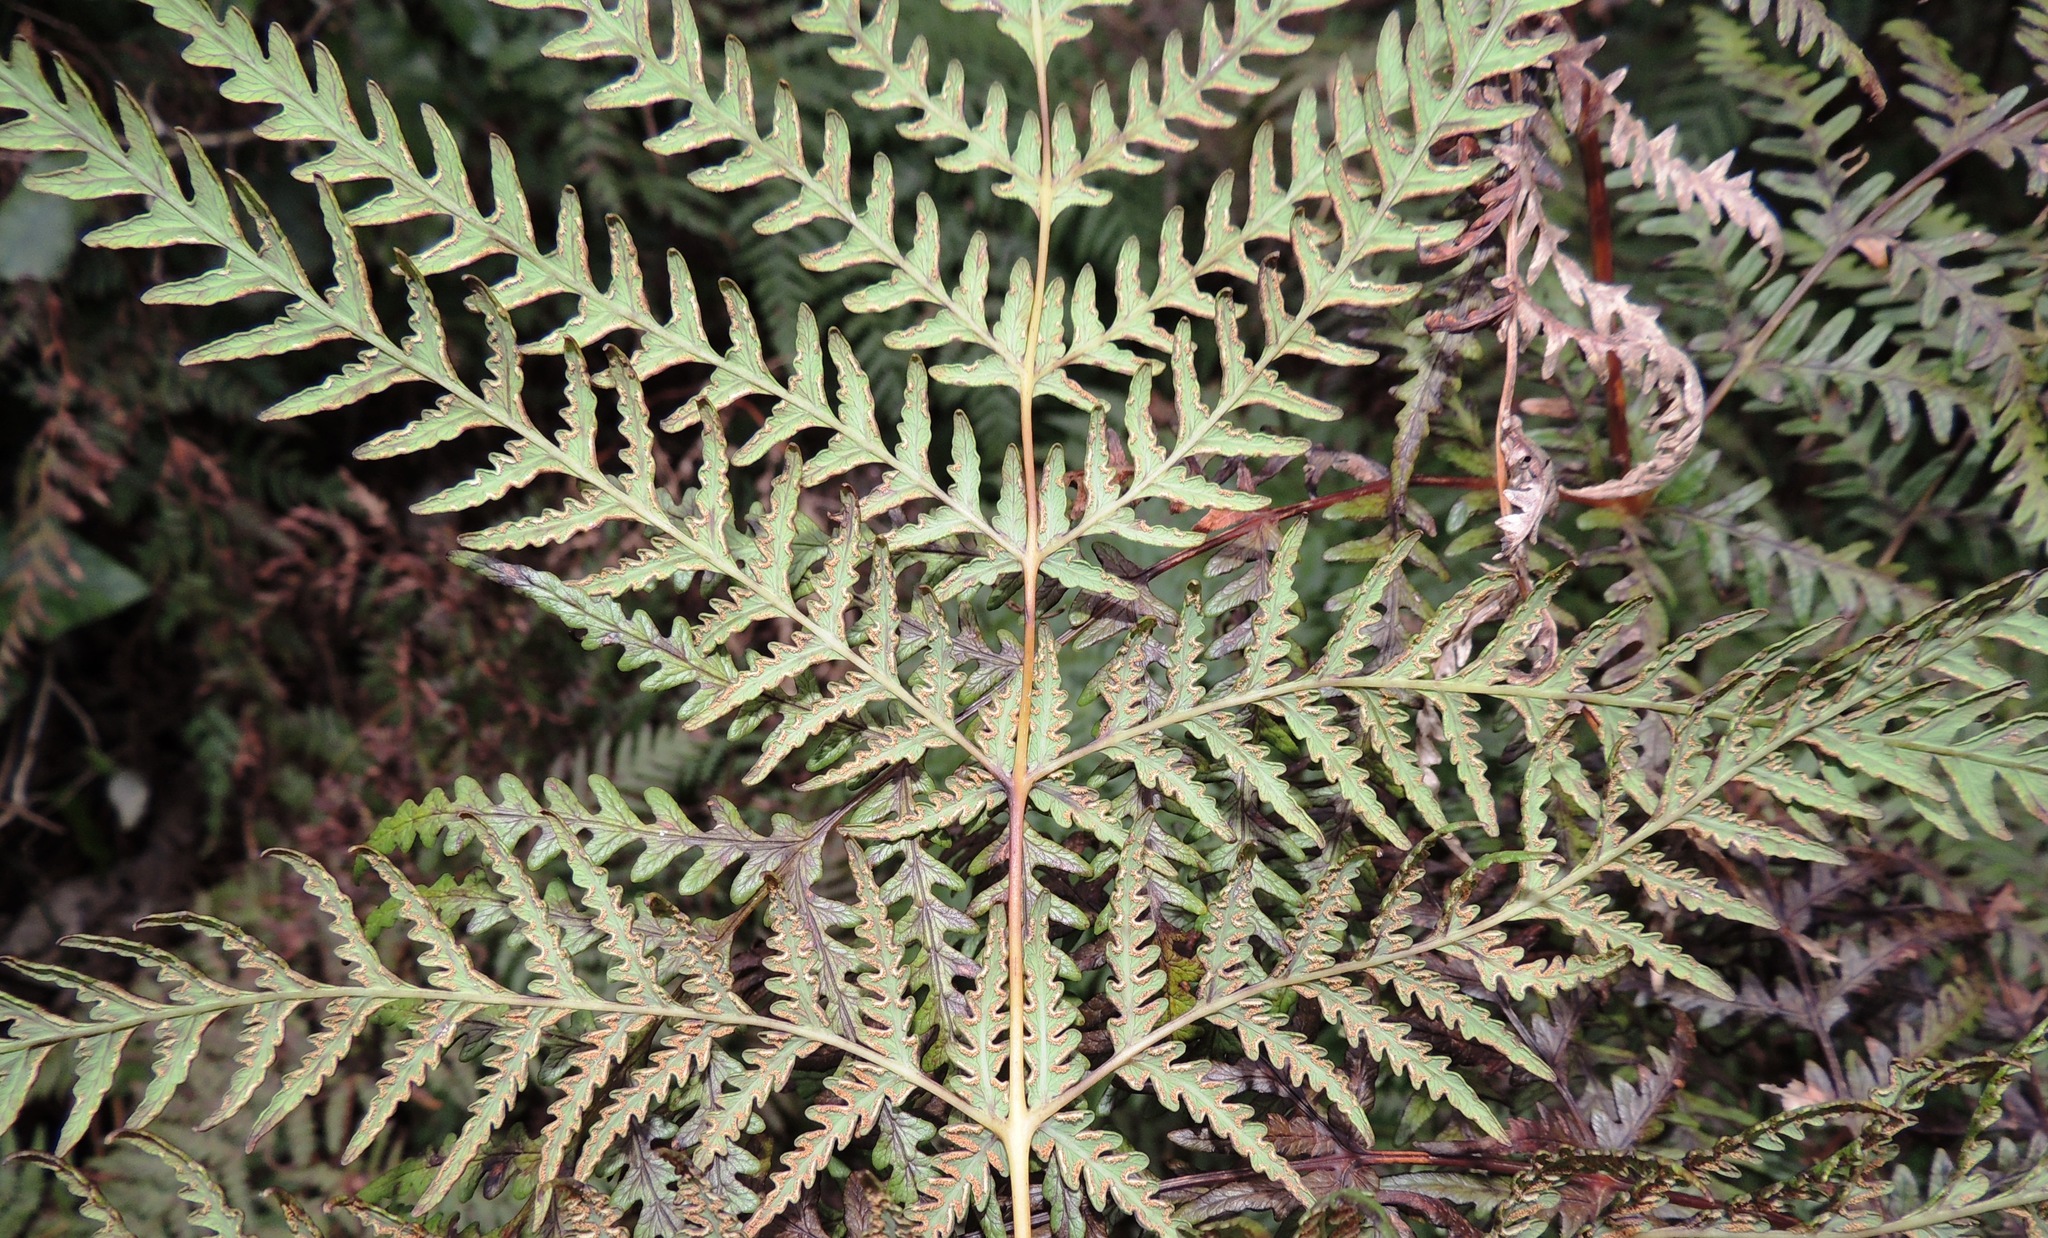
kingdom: Plantae
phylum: Tracheophyta
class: Polypodiopsida
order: Polypodiales
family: Dennstaedtiaceae
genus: Histiopteris
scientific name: Histiopteris incisa
